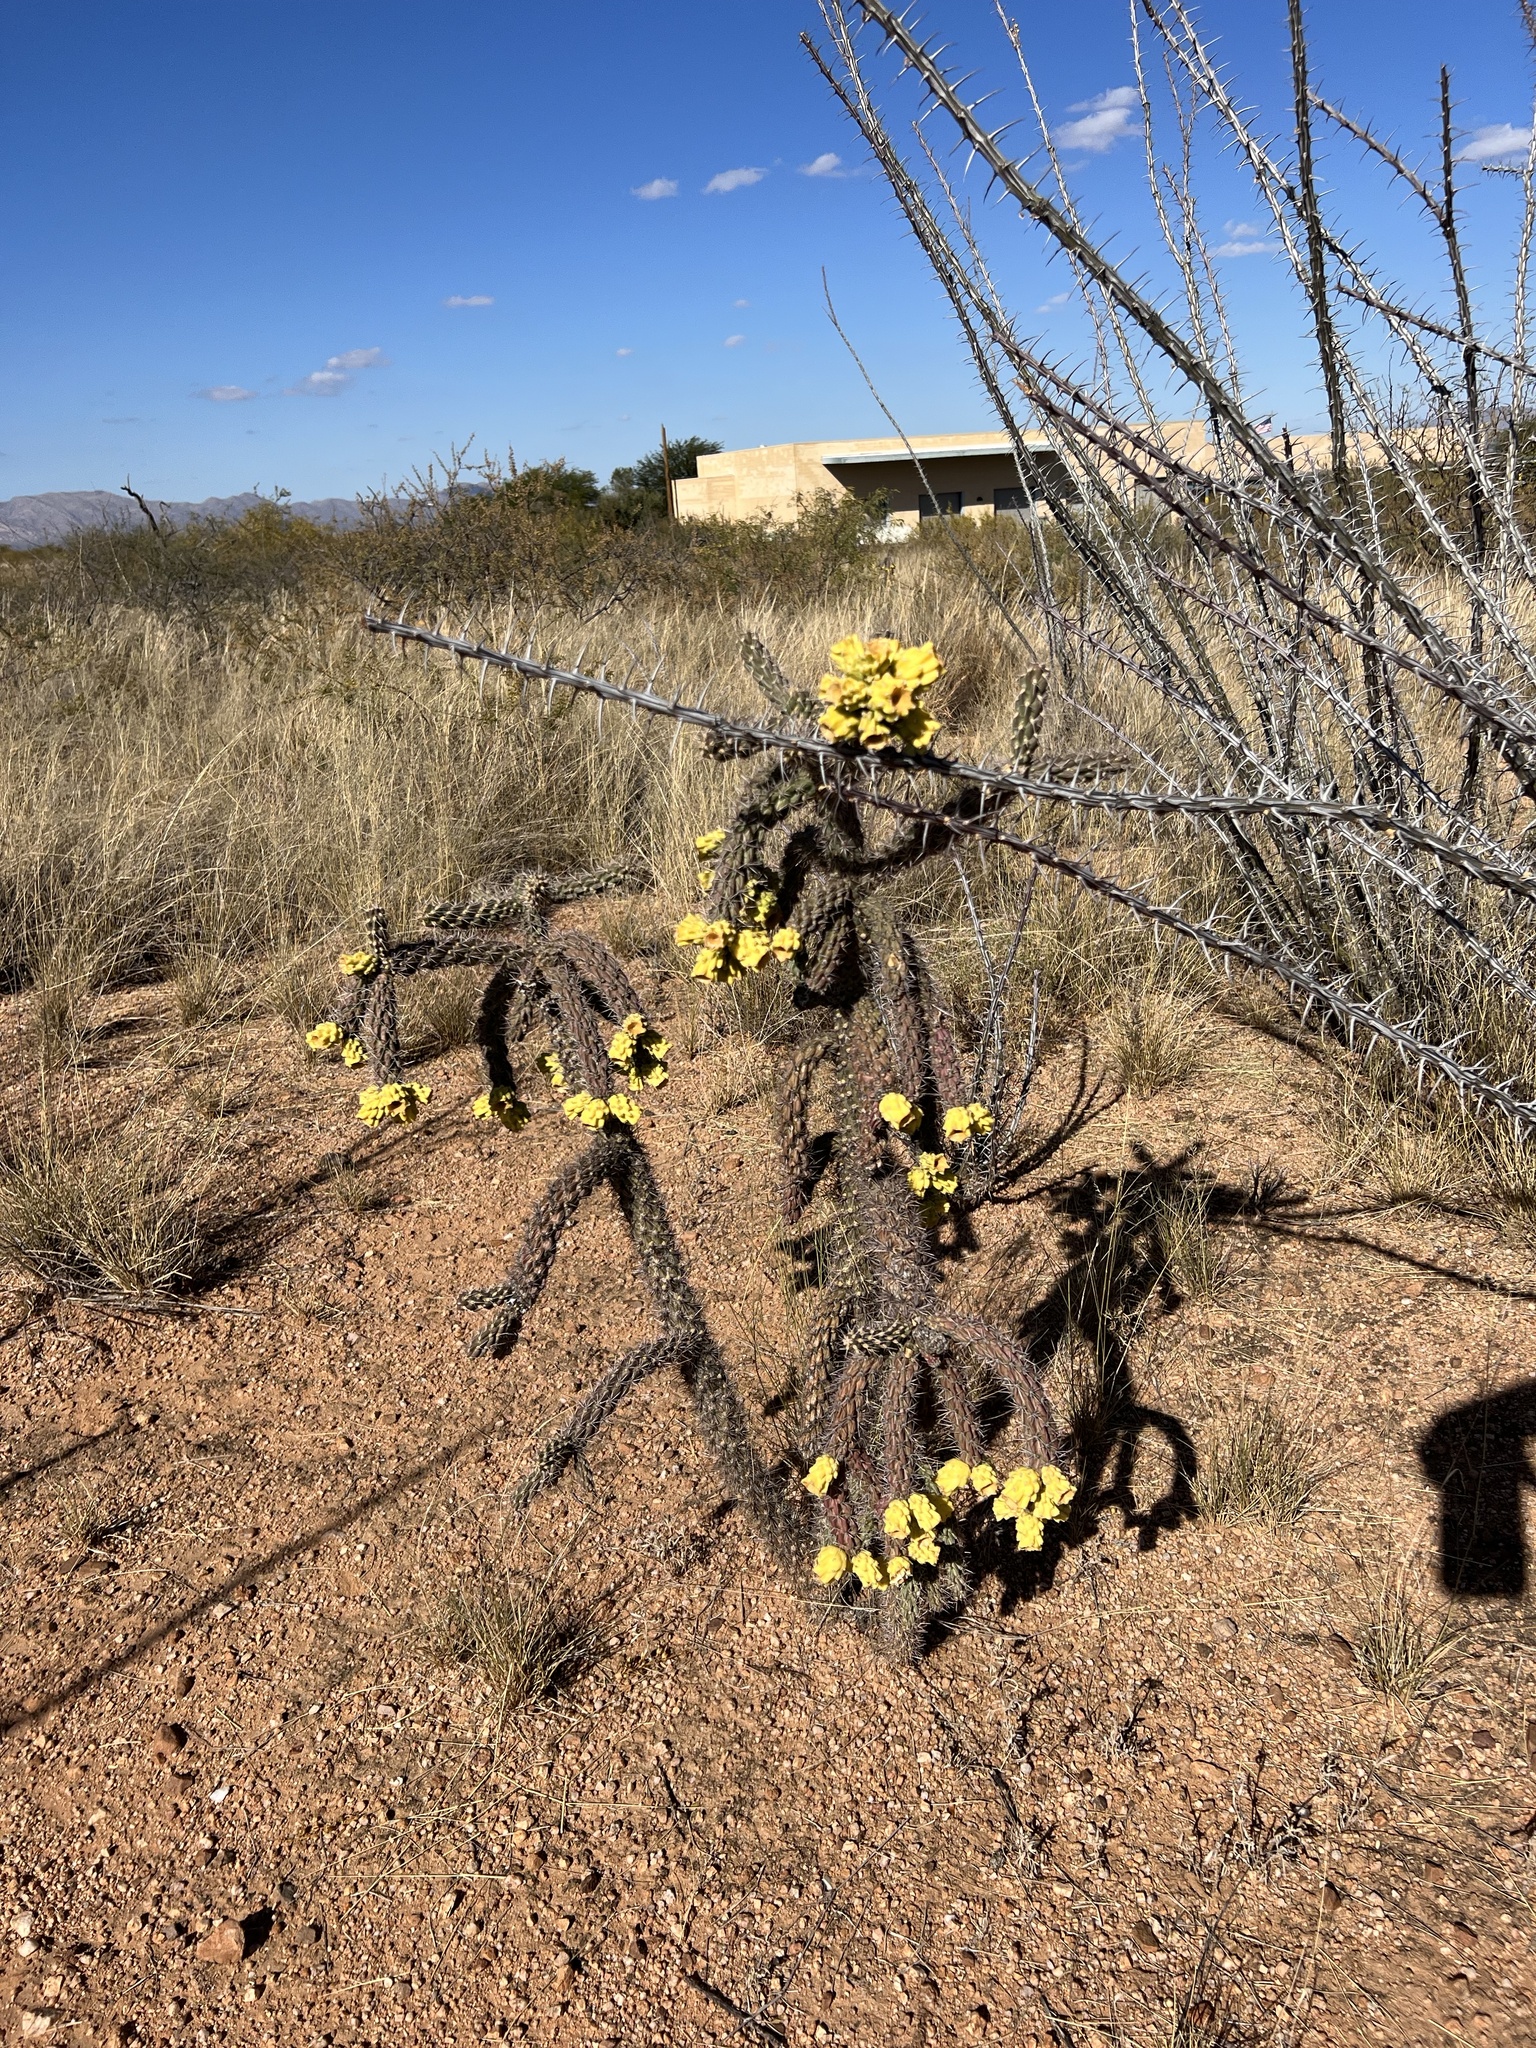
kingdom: Plantae
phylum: Tracheophyta
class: Magnoliopsida
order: Caryophyllales
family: Cactaceae
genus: Cylindropuntia
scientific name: Cylindropuntia imbricata
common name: Candelabrum cactus
